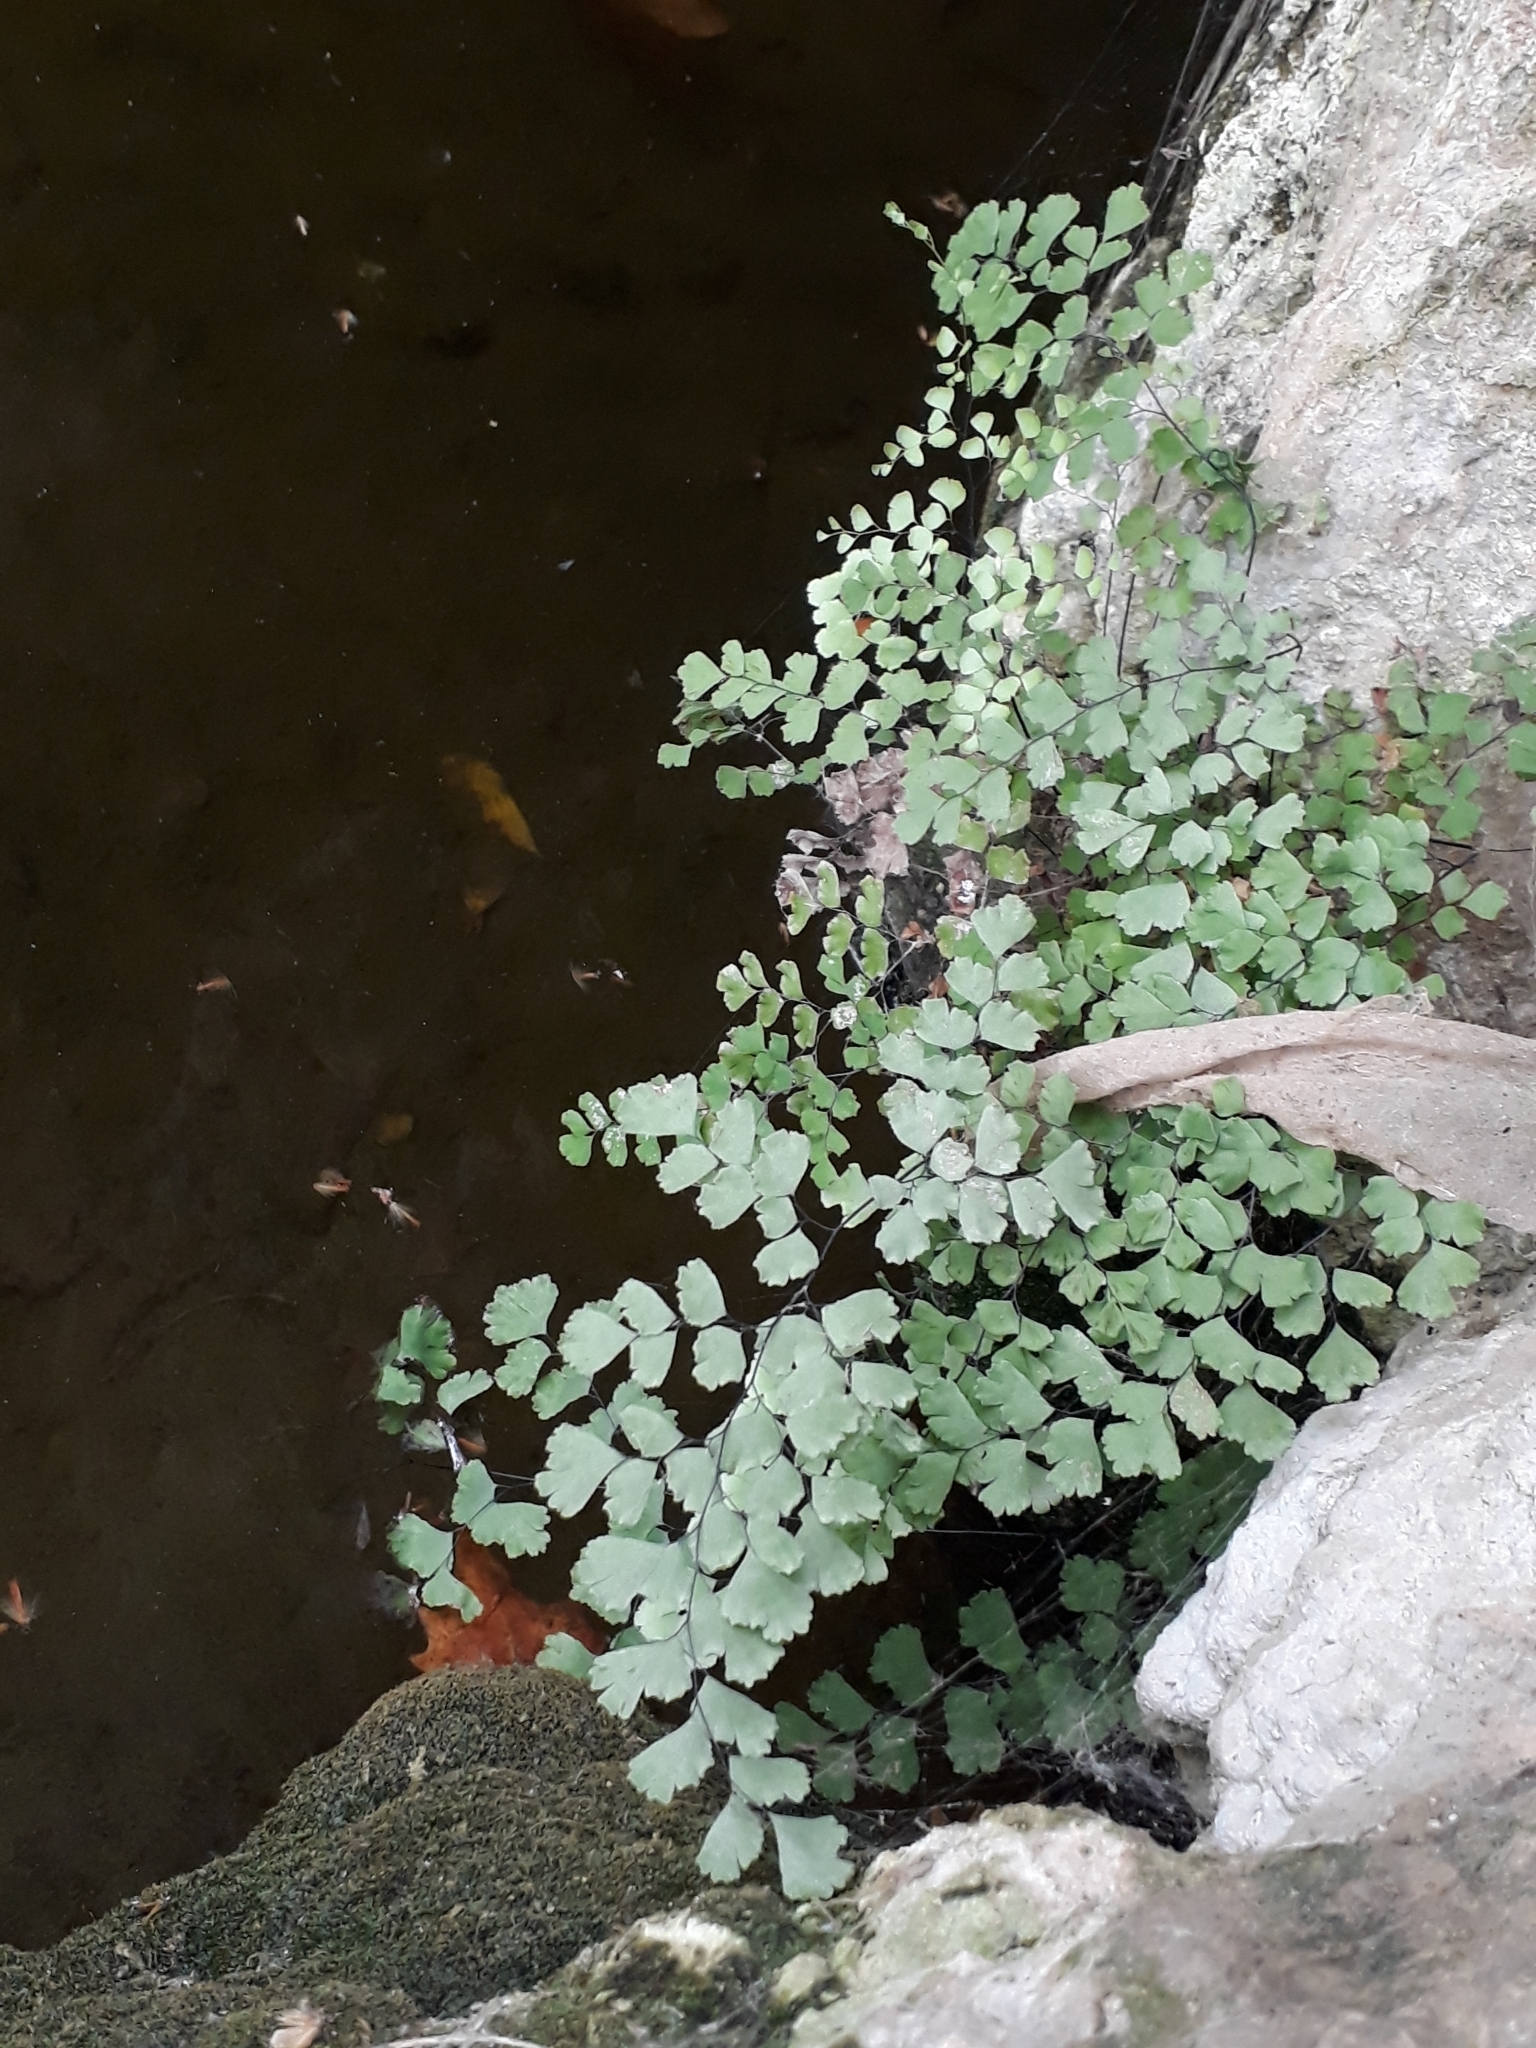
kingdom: Plantae
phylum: Tracheophyta
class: Polypodiopsida
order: Polypodiales
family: Pteridaceae
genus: Adiantum
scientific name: Adiantum capillus-veneris
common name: Maidenhair fern
